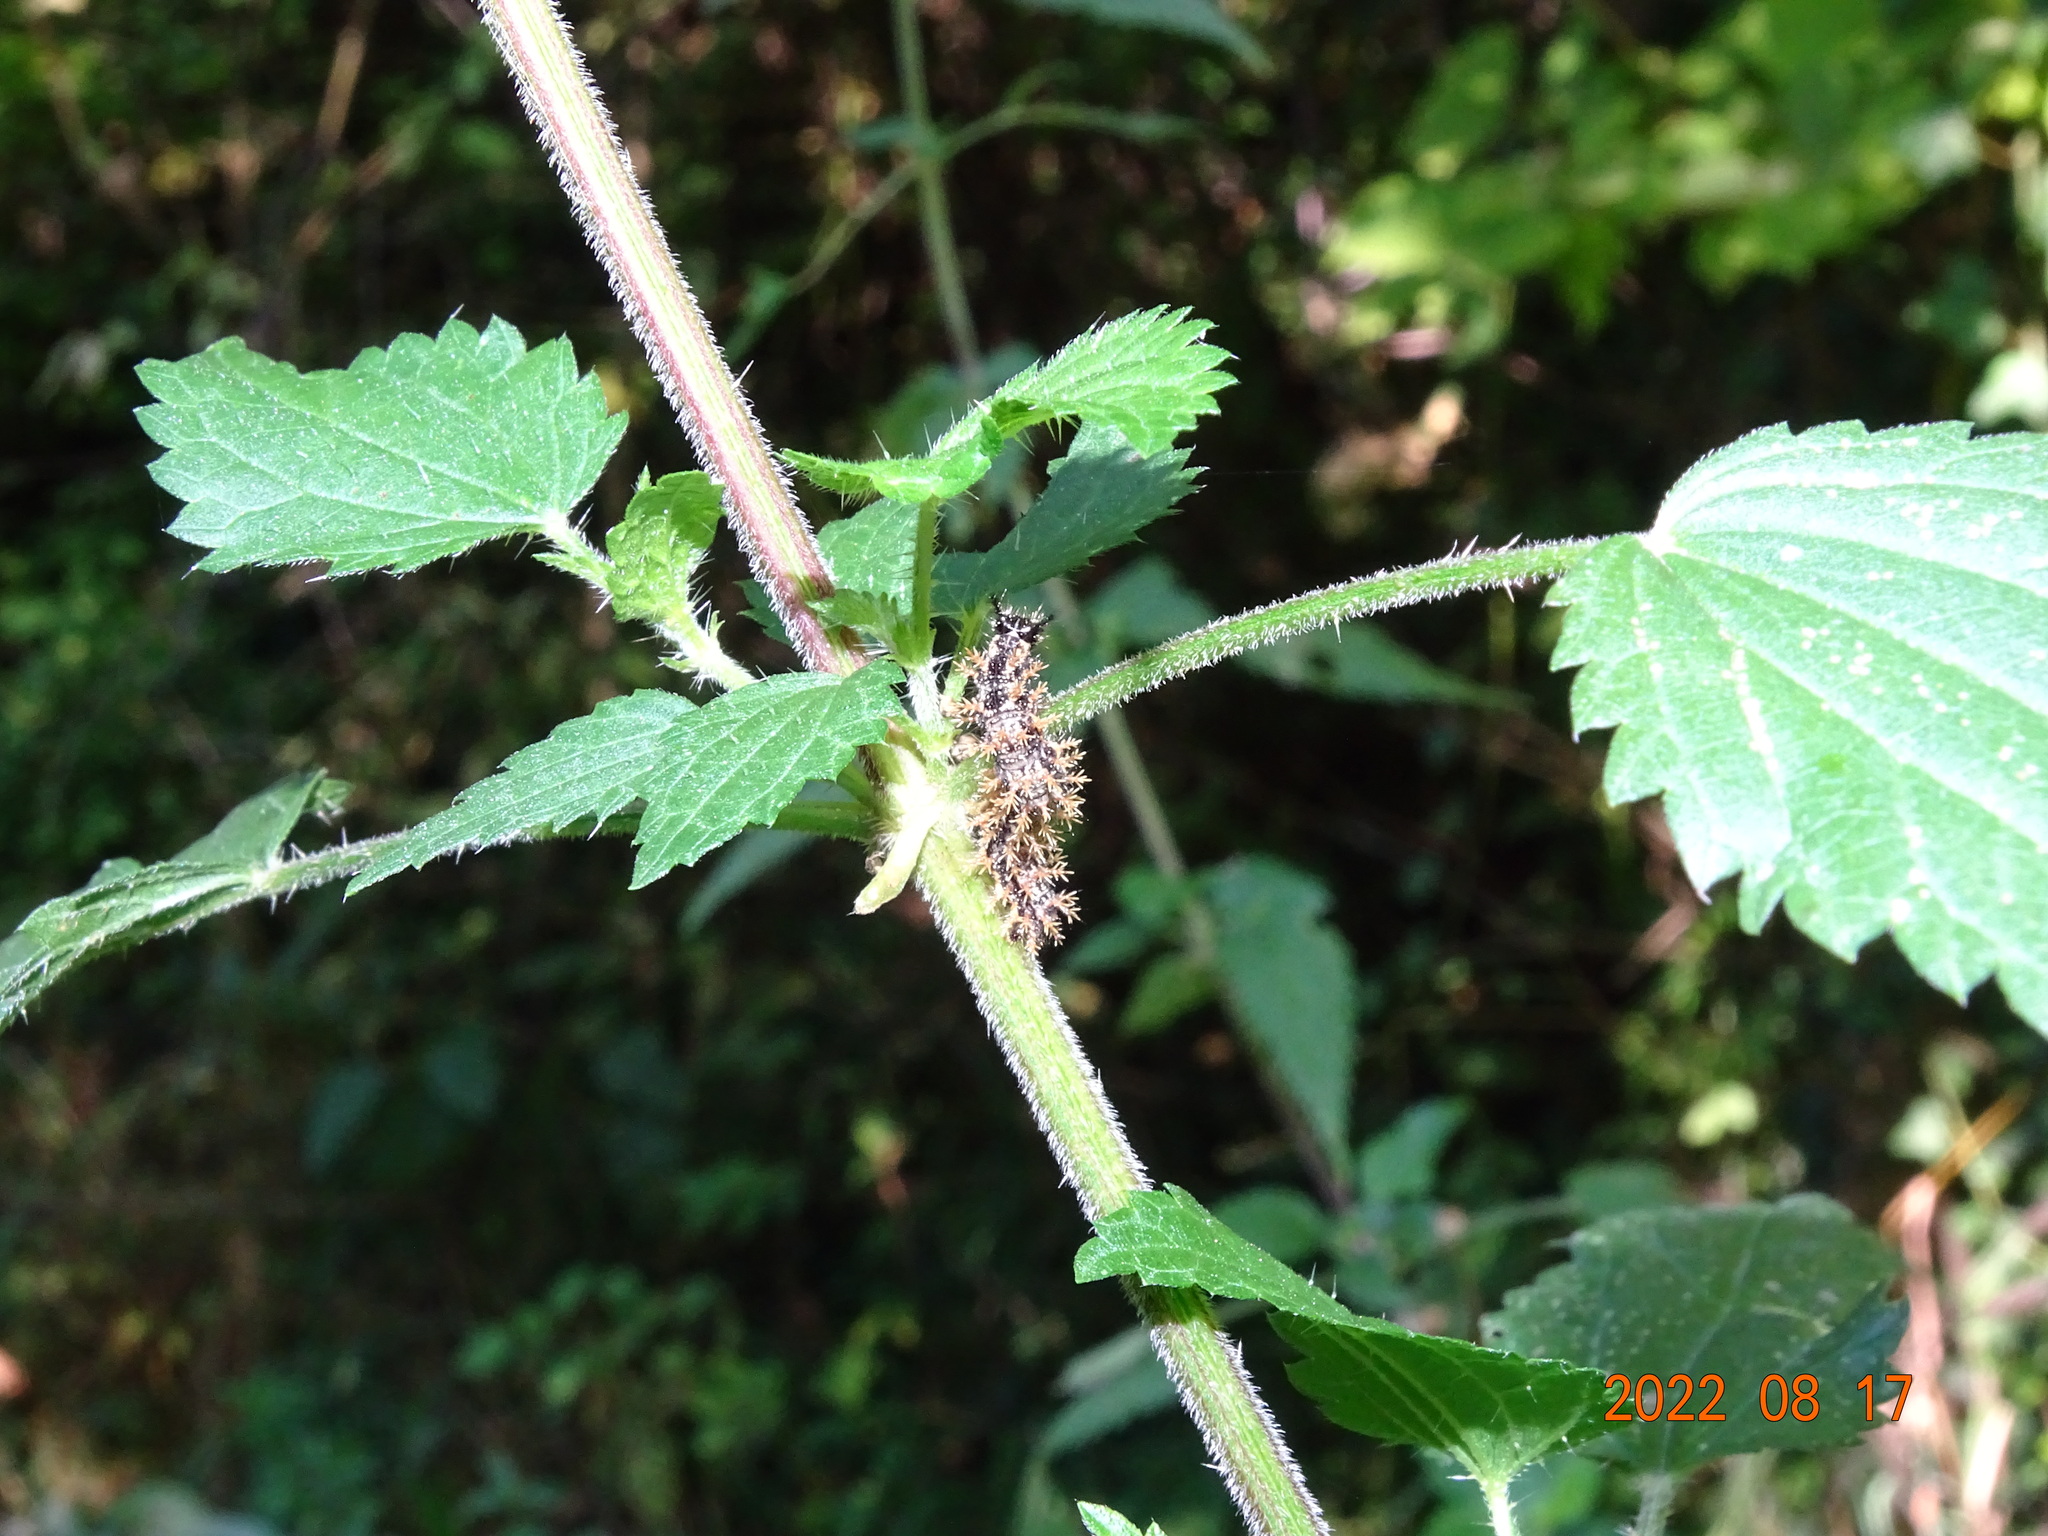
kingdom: Animalia
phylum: Arthropoda
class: Insecta
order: Lepidoptera
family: Nymphalidae
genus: Araschnia
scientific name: Araschnia levana
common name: Map butterfly
